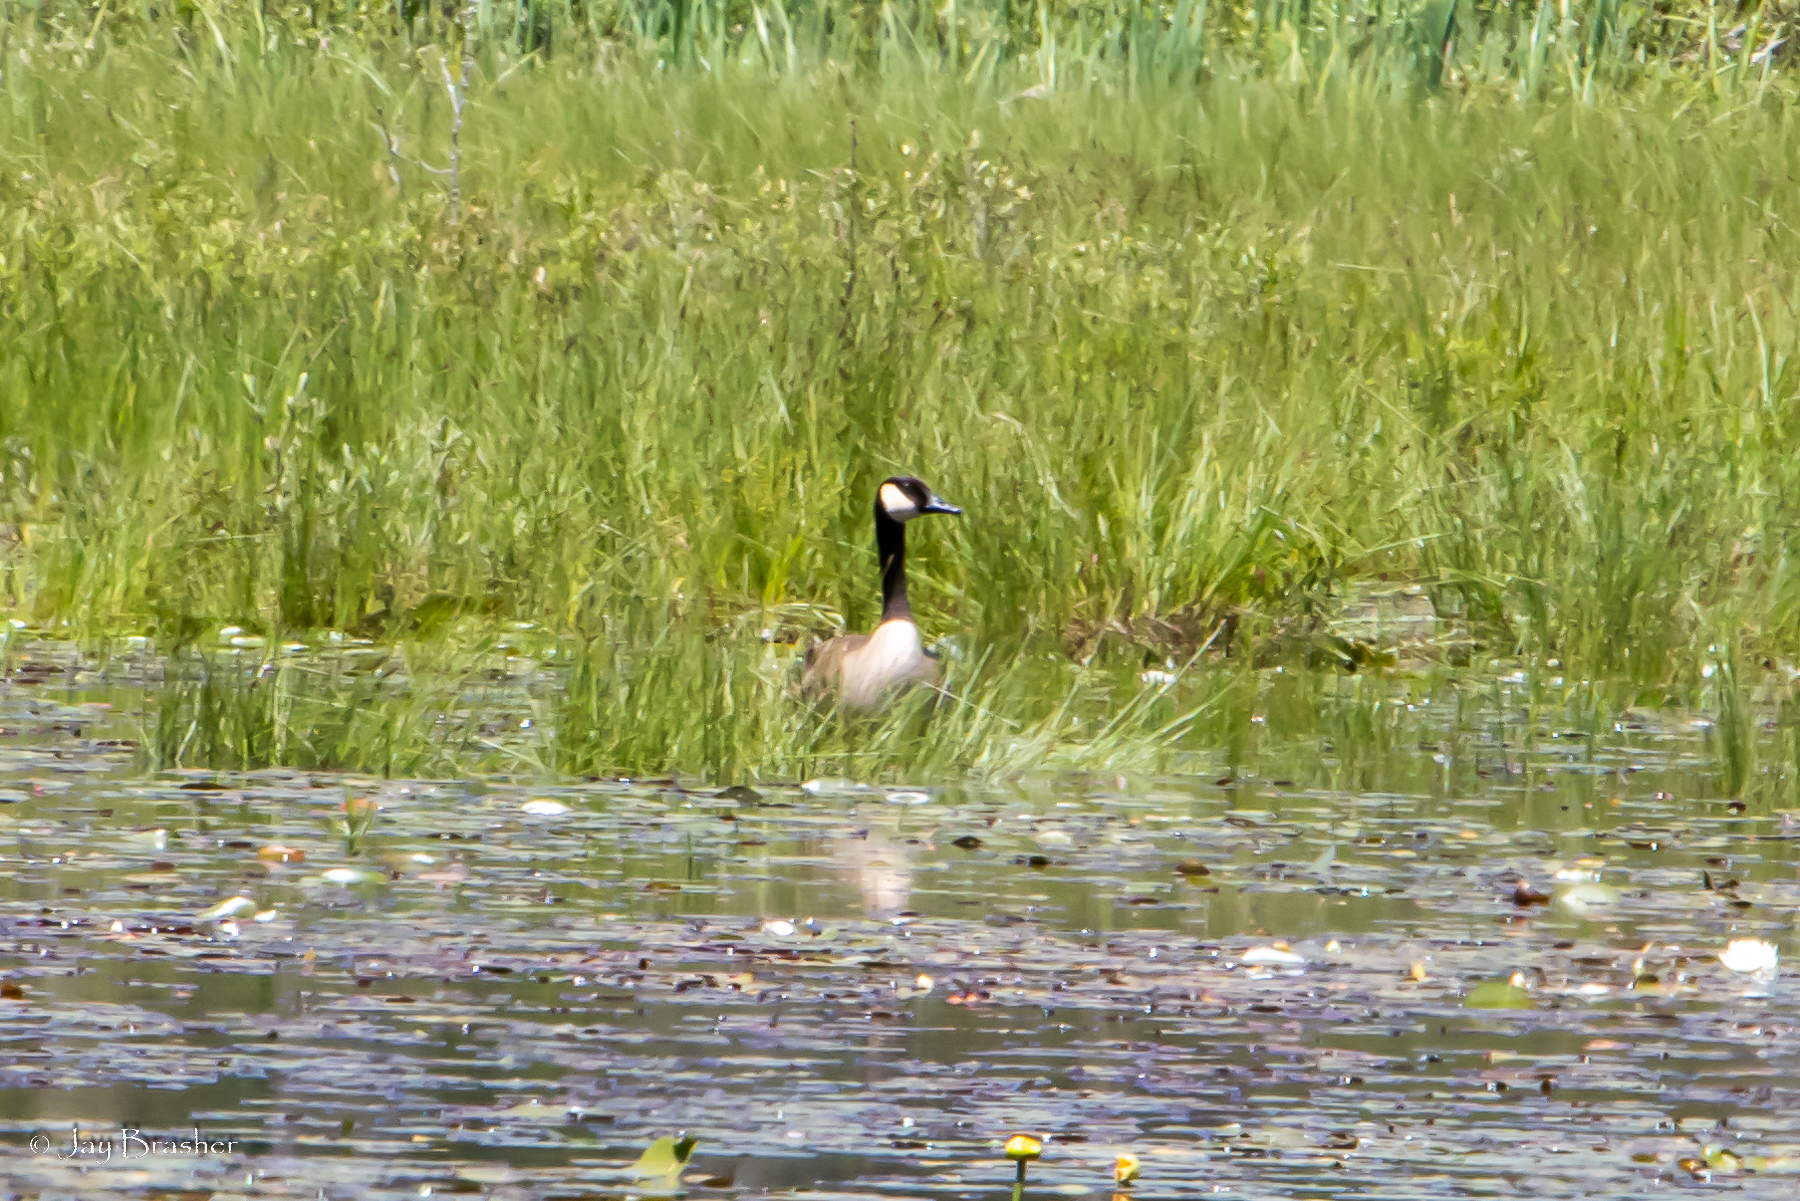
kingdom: Animalia
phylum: Chordata
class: Aves
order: Anseriformes
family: Anatidae
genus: Branta
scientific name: Branta canadensis
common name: Canada goose
